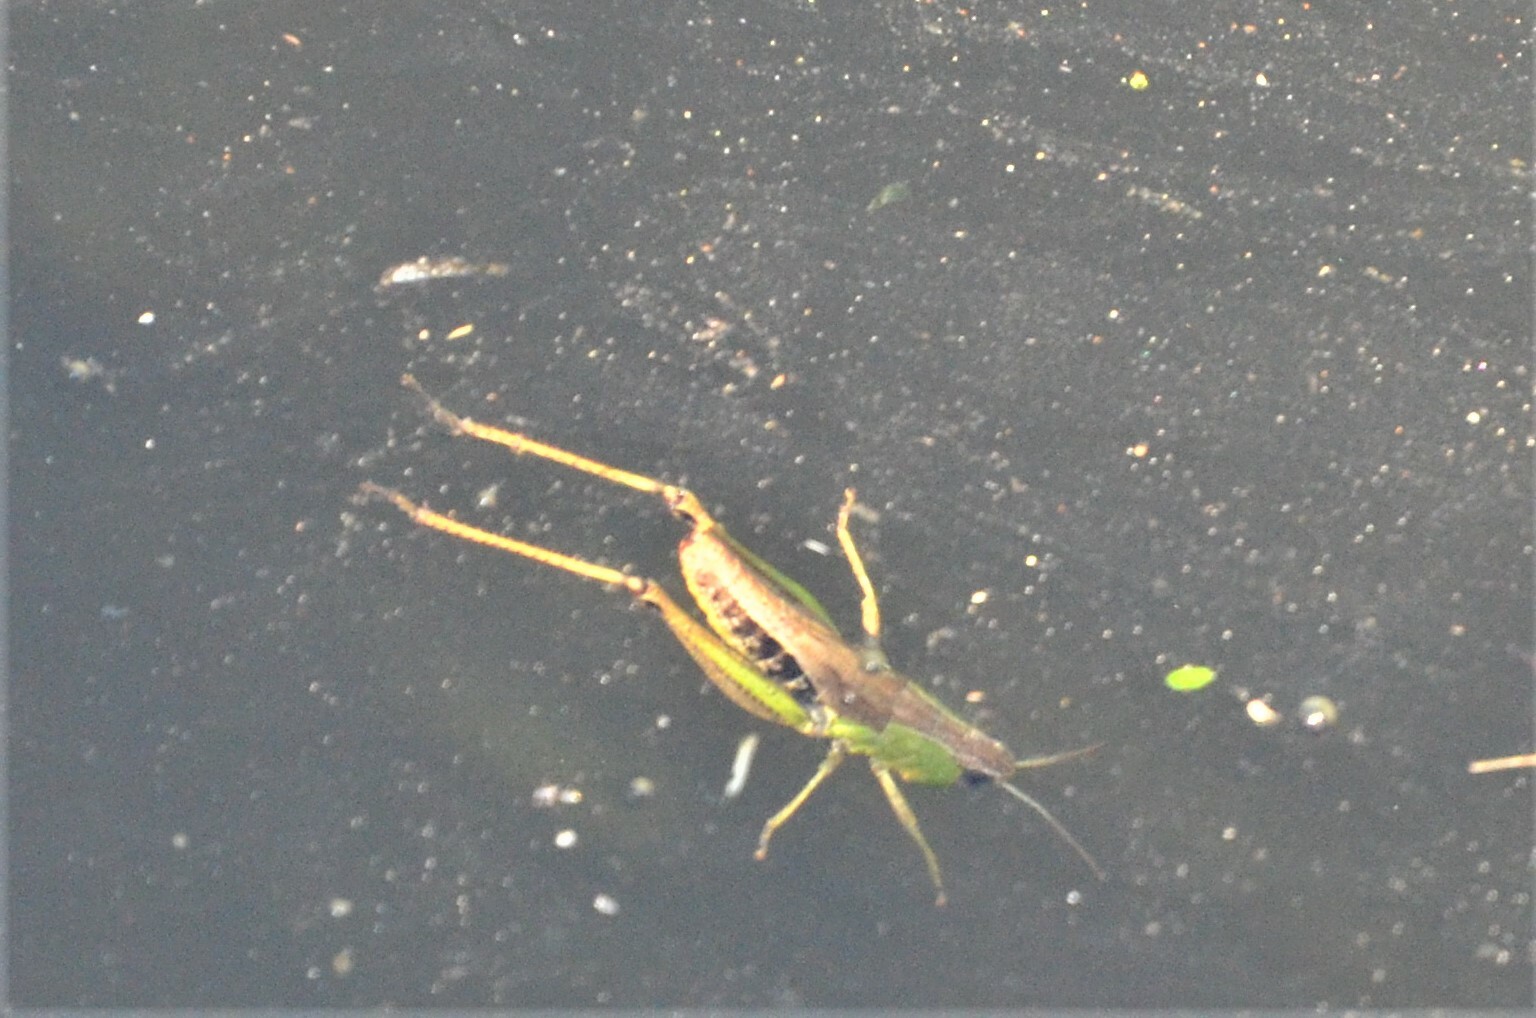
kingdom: Animalia
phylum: Arthropoda
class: Insecta
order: Orthoptera
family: Acrididae
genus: Pseudochorthippus
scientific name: Pseudochorthippus parallelus
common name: Meadow grasshopper
